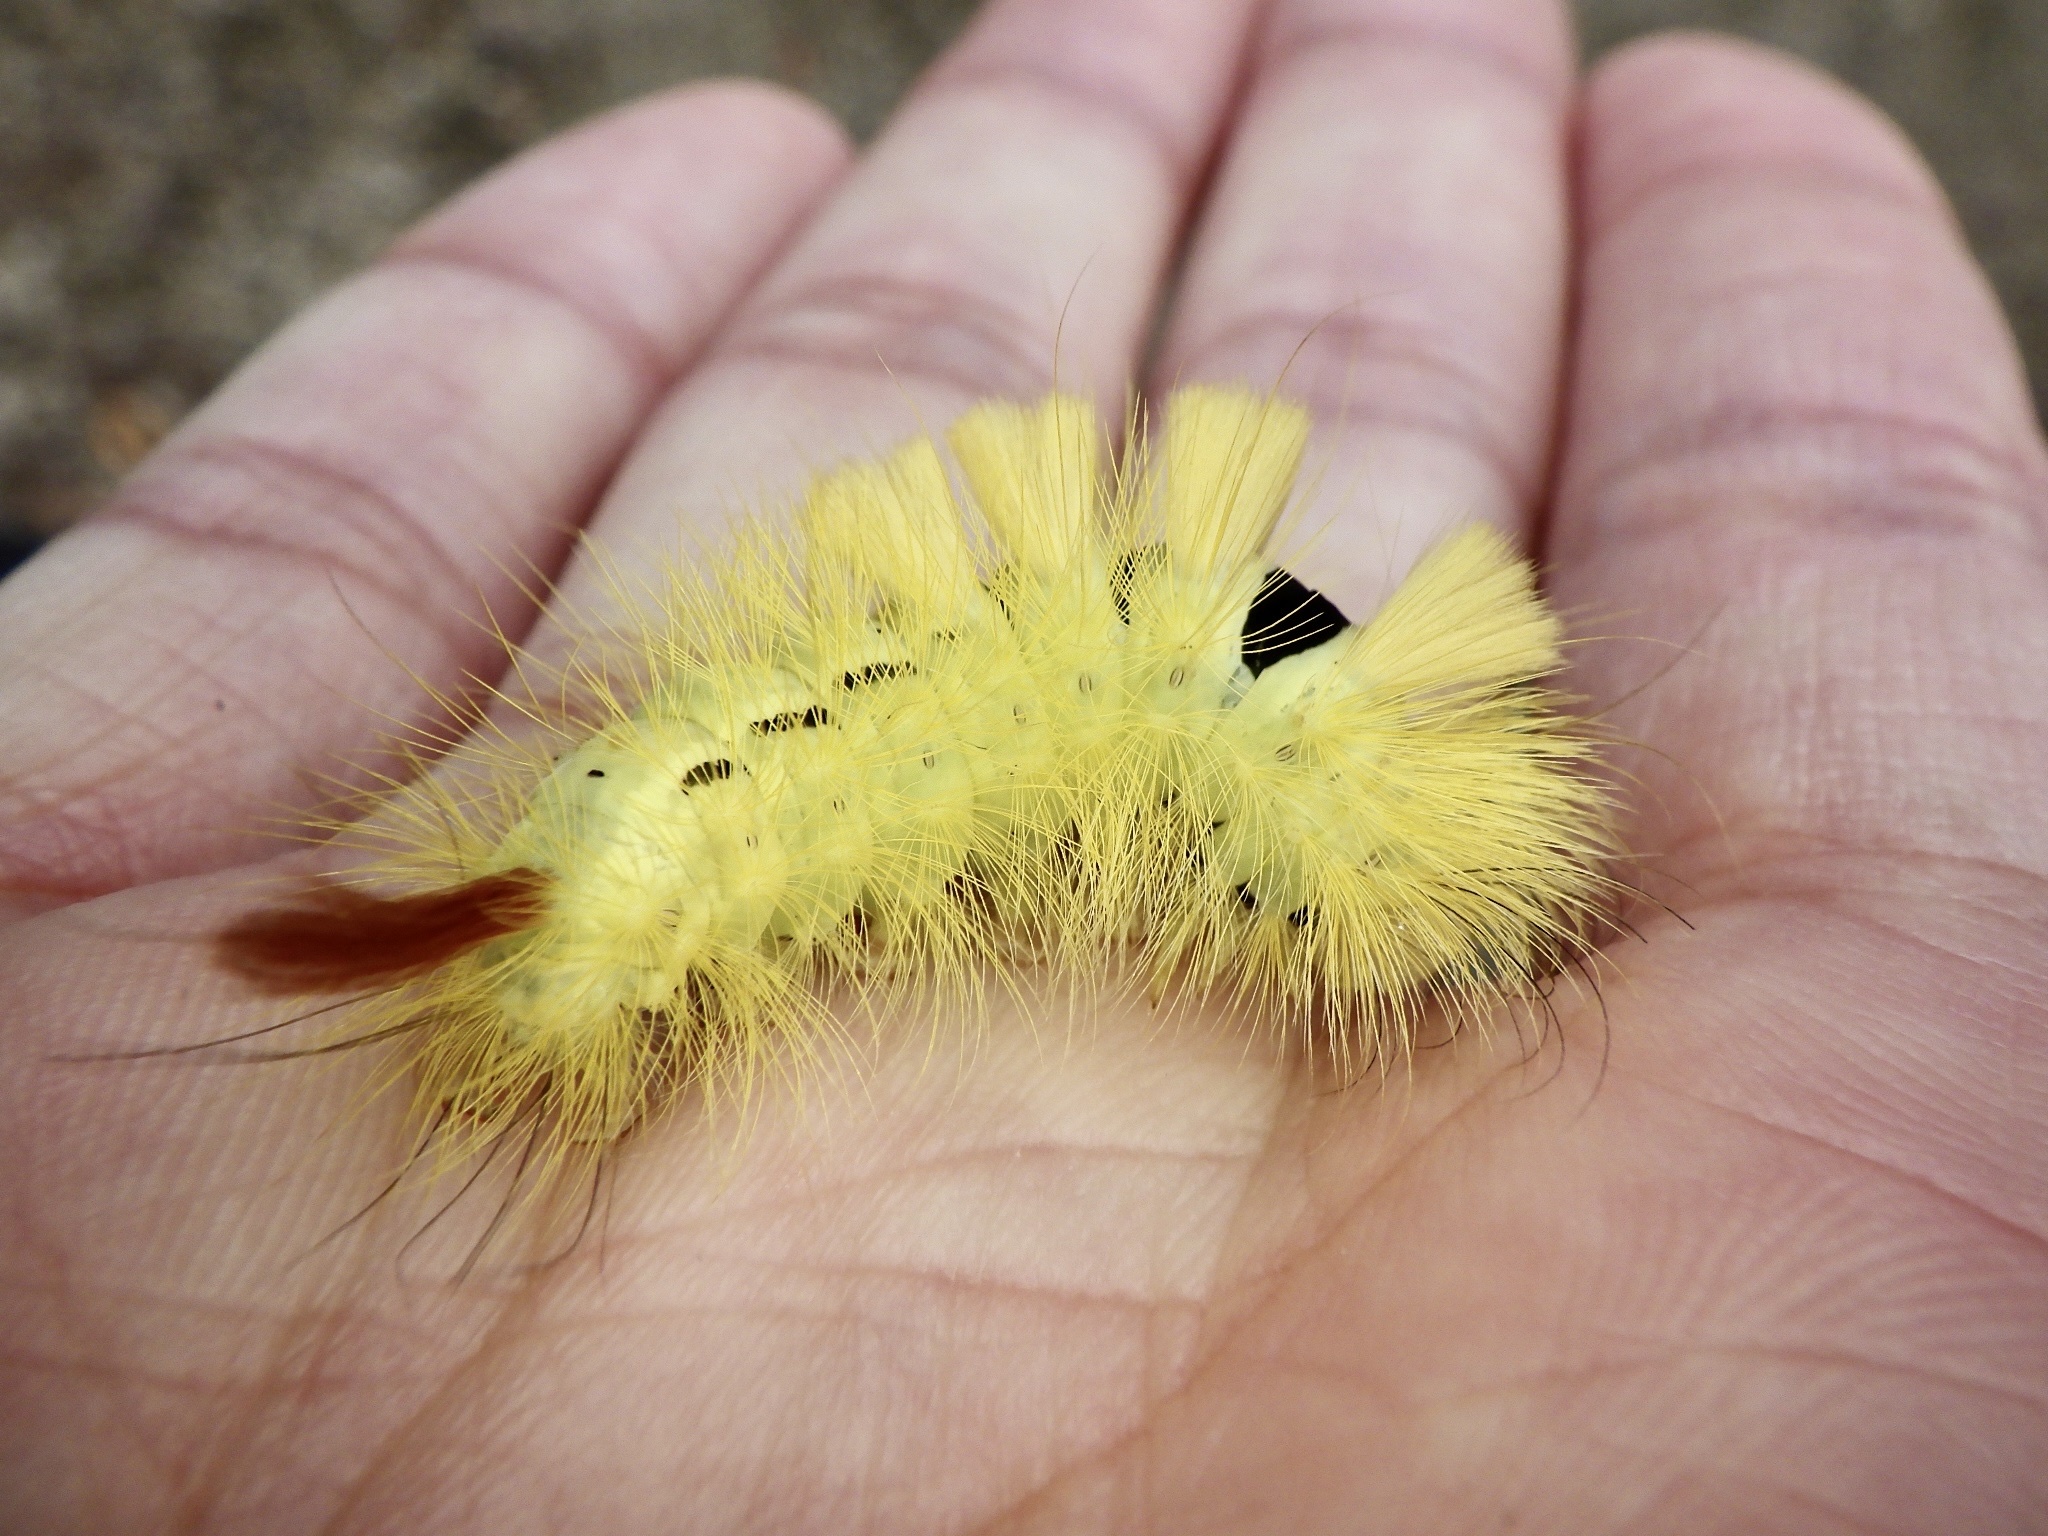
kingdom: Animalia
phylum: Arthropoda
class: Insecta
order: Lepidoptera
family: Erebidae
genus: Calliteara
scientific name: Calliteara
